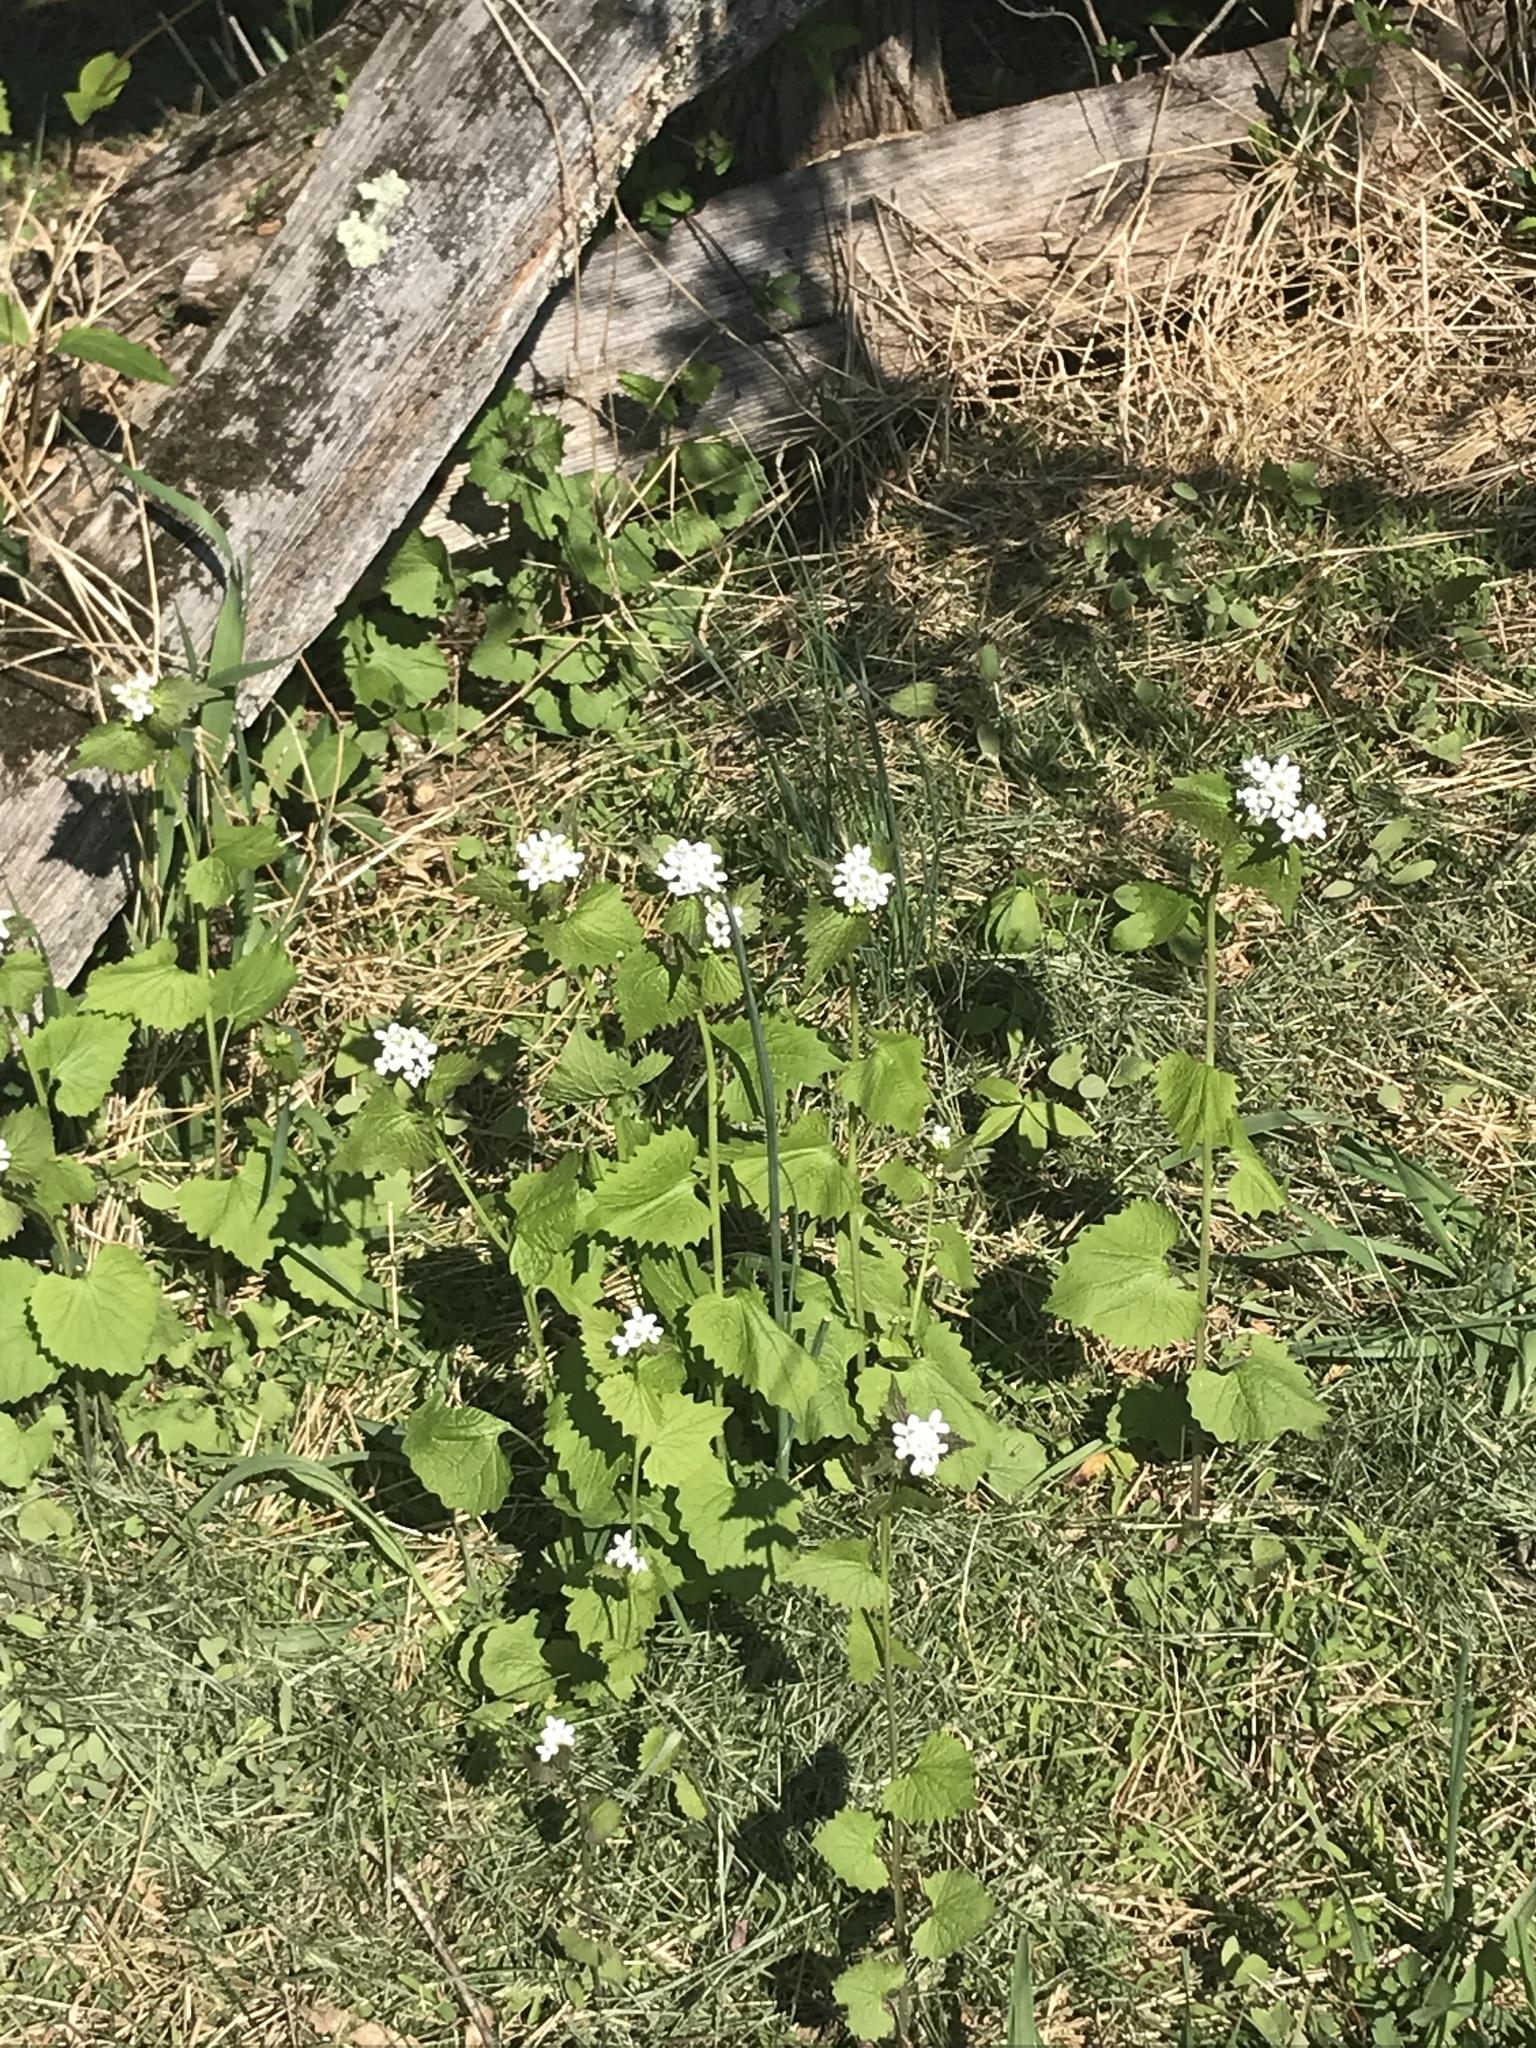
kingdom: Plantae
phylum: Tracheophyta
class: Magnoliopsida
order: Brassicales
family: Brassicaceae
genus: Alliaria
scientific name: Alliaria petiolata
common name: Garlic mustard
